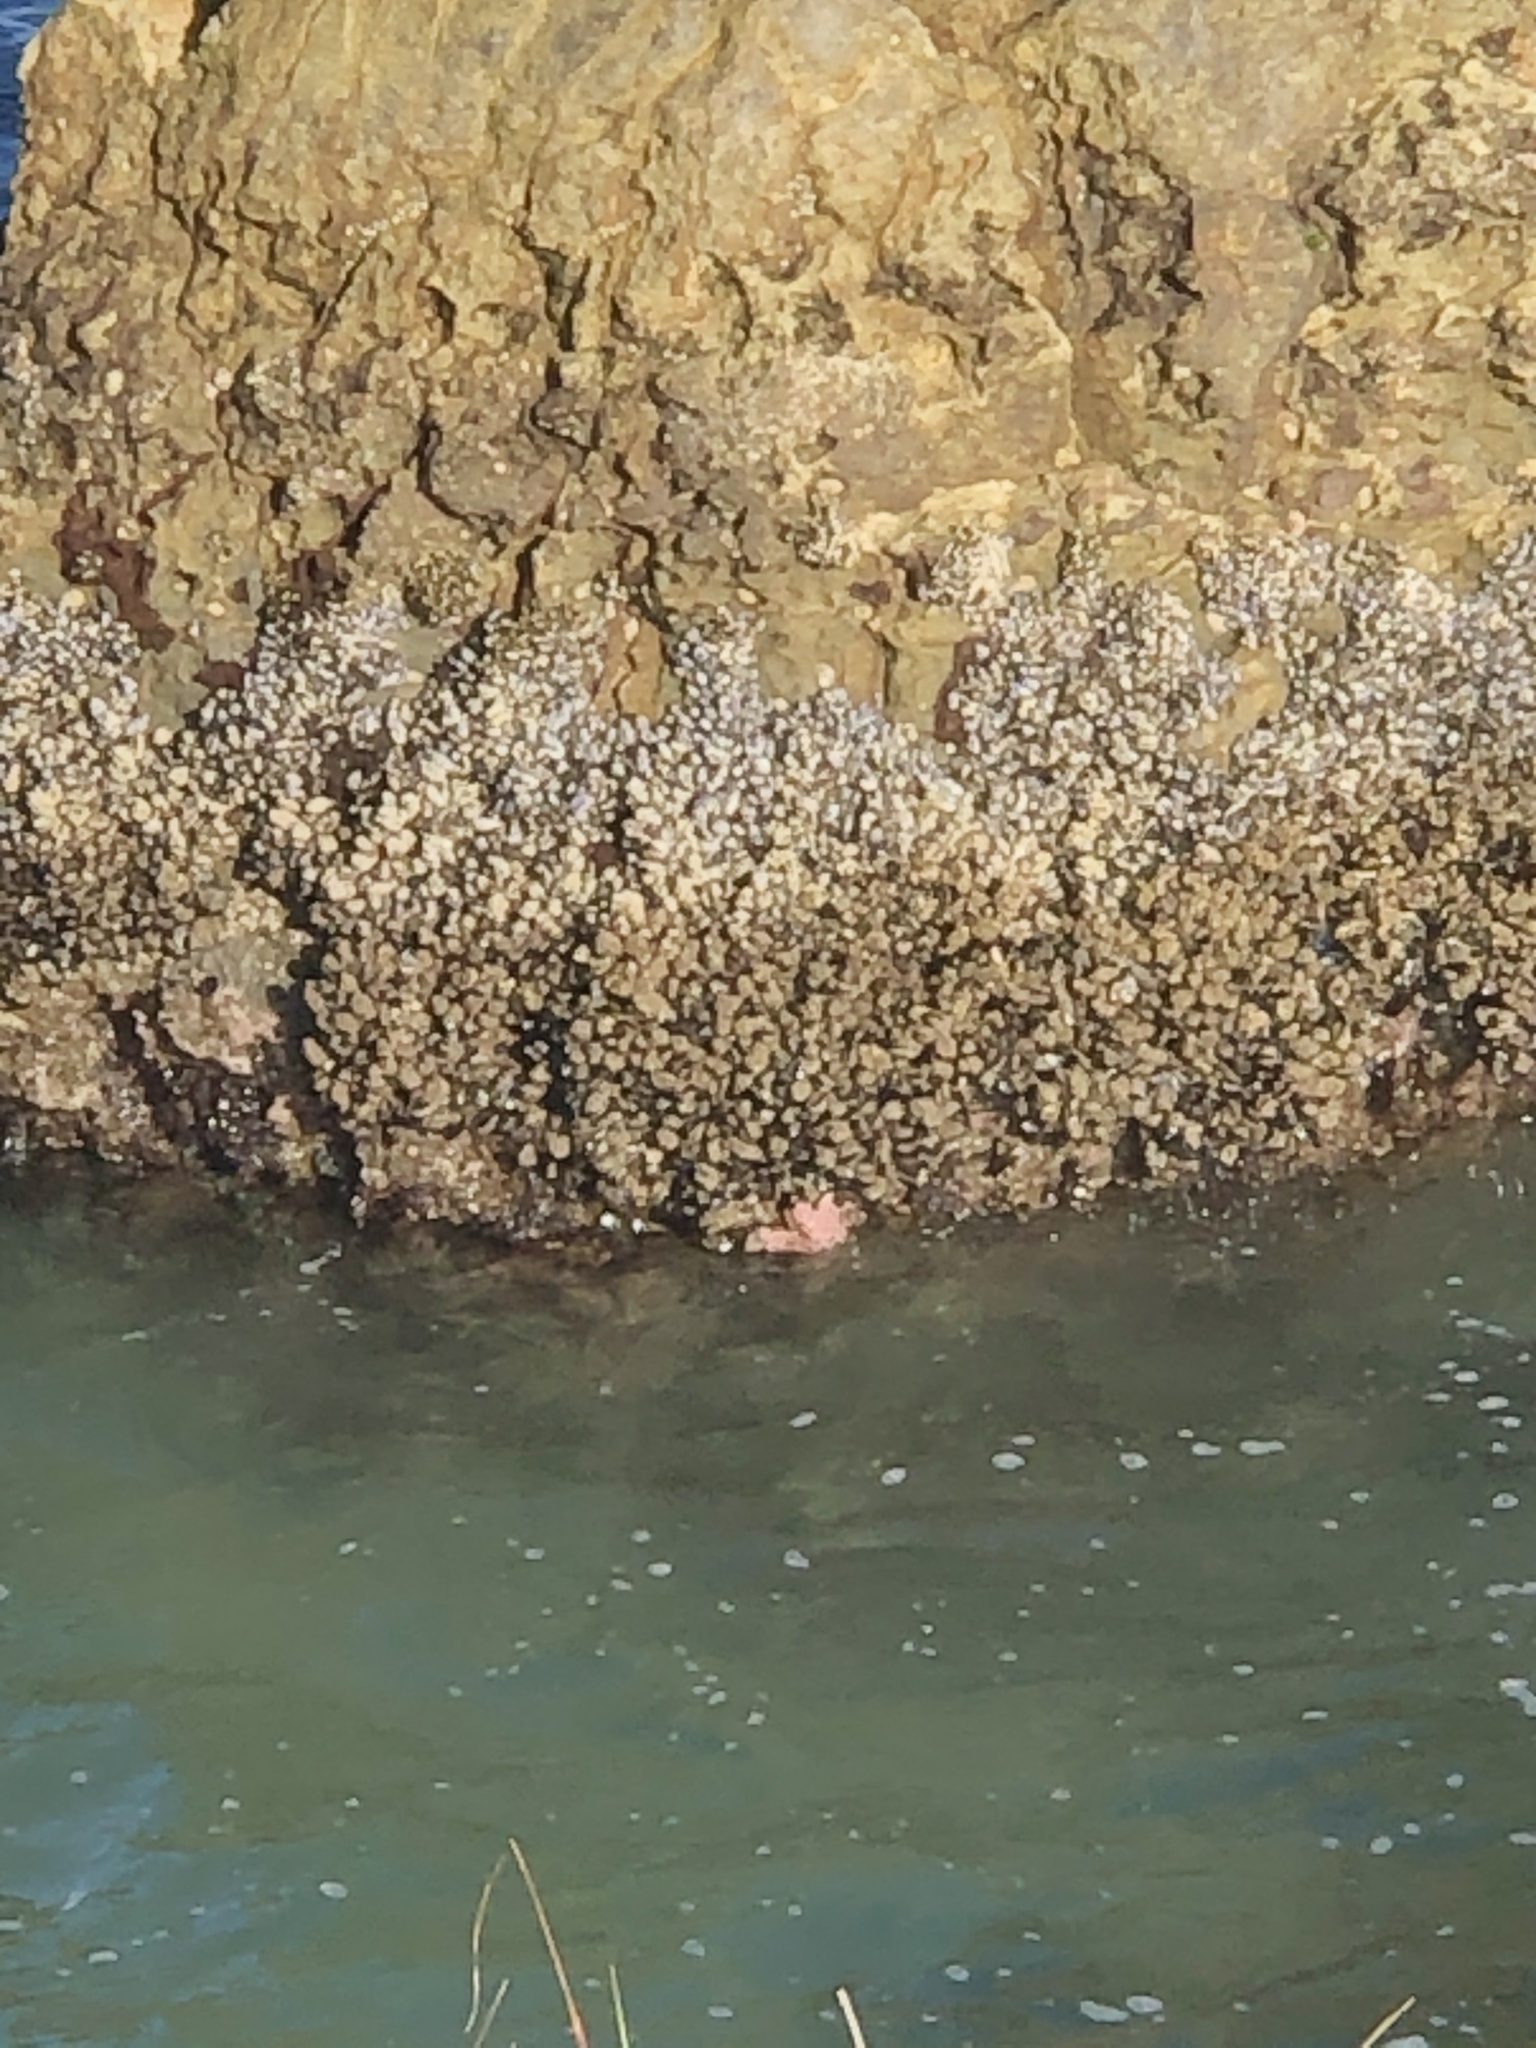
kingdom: Animalia
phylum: Echinodermata
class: Asteroidea
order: Forcipulatida
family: Asteriidae
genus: Pisaster
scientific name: Pisaster ochraceus
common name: Ochre stars
